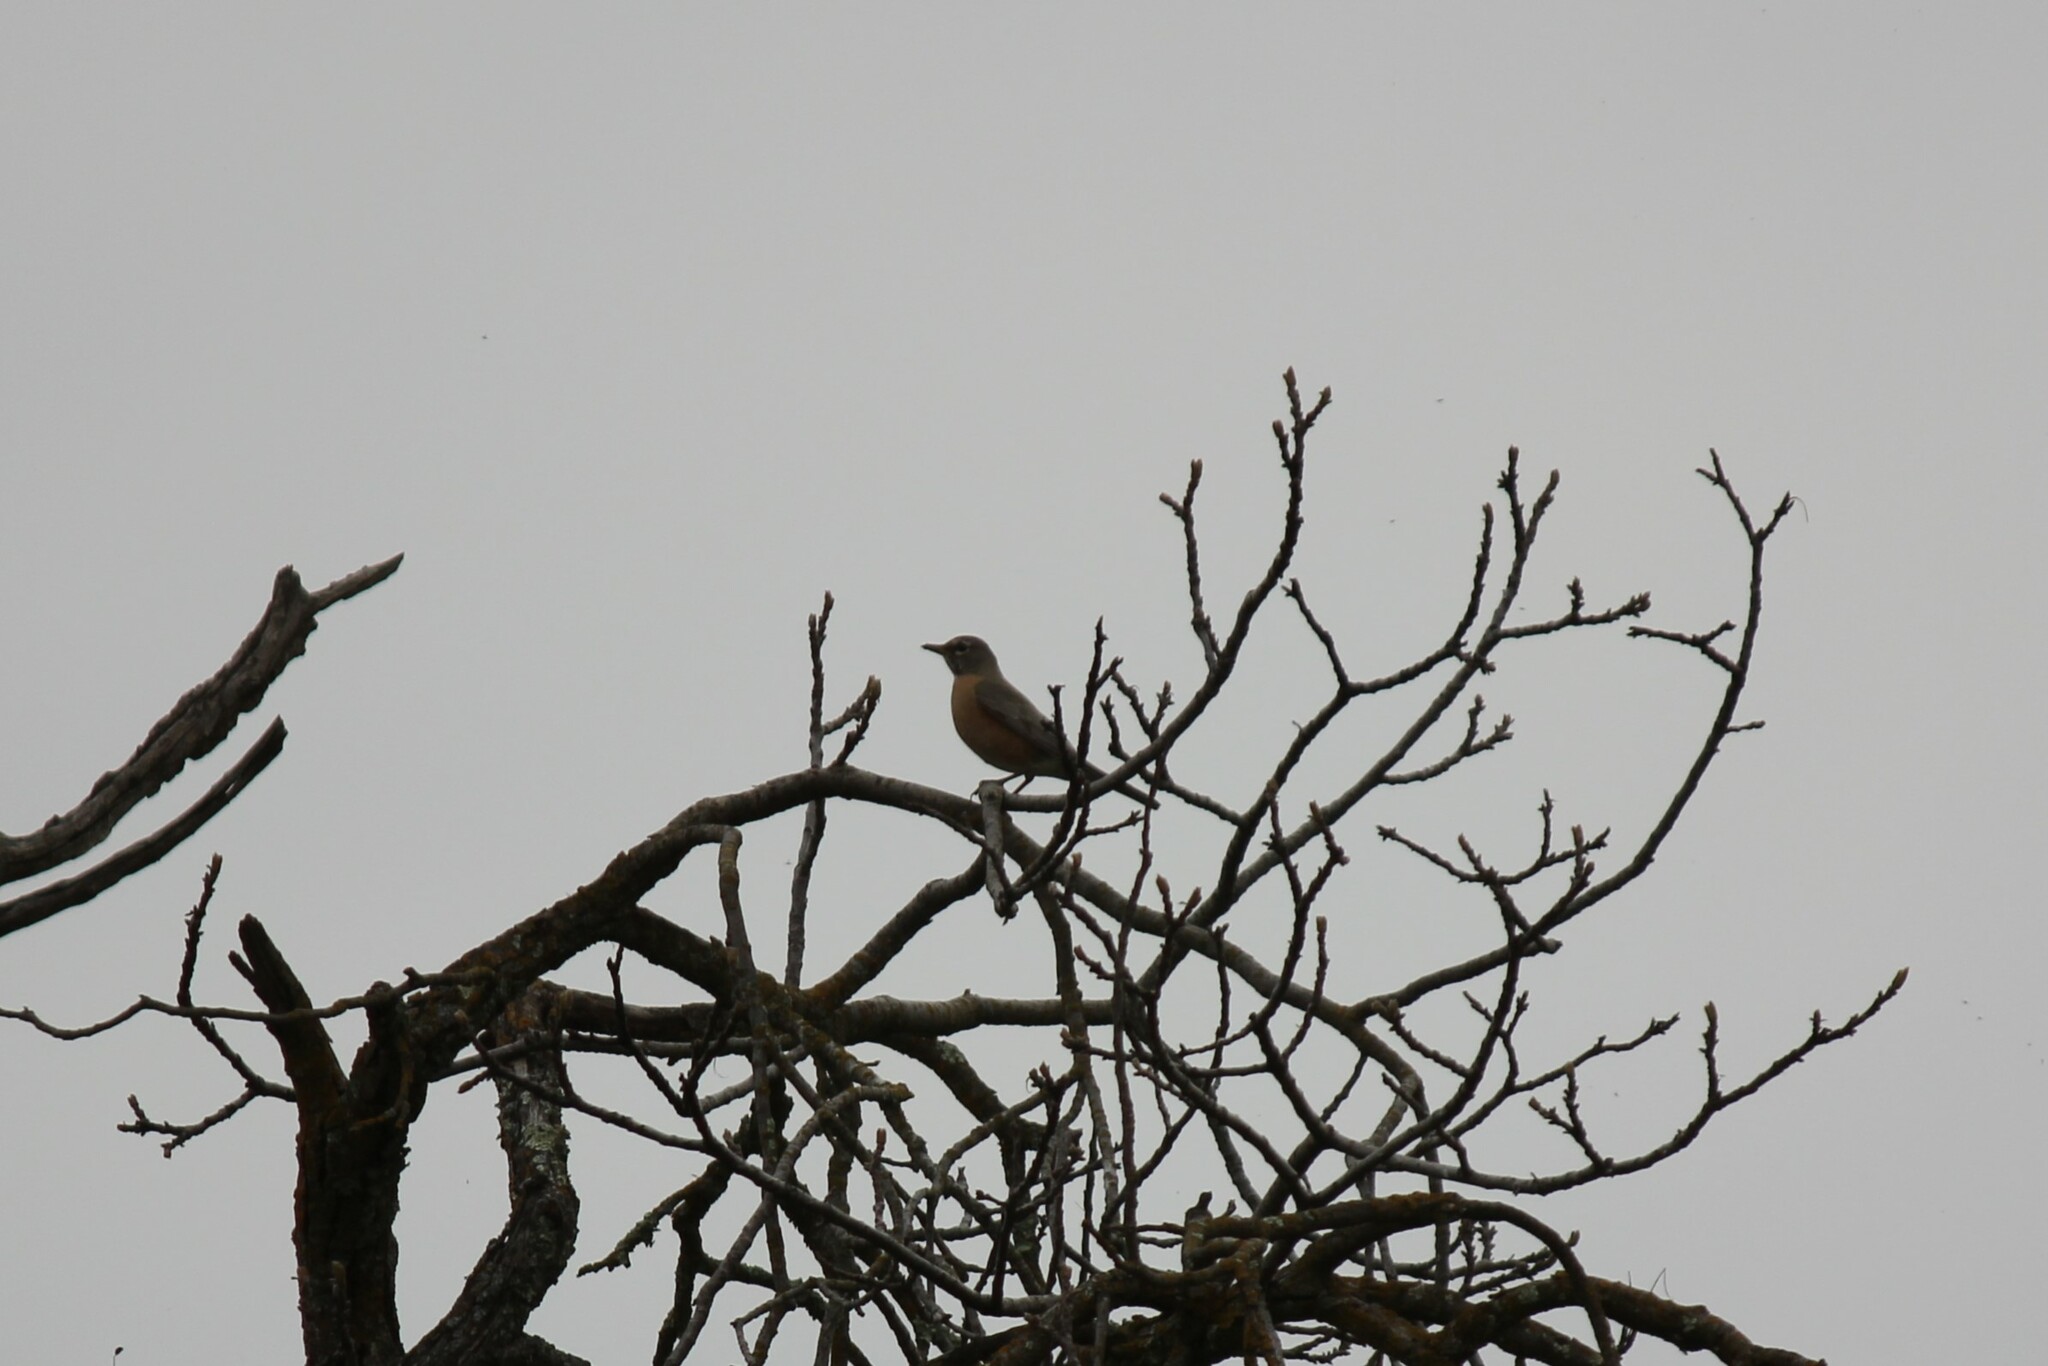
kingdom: Animalia
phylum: Chordata
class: Aves
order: Passeriformes
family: Turdidae
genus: Turdus
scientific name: Turdus migratorius
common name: American robin
